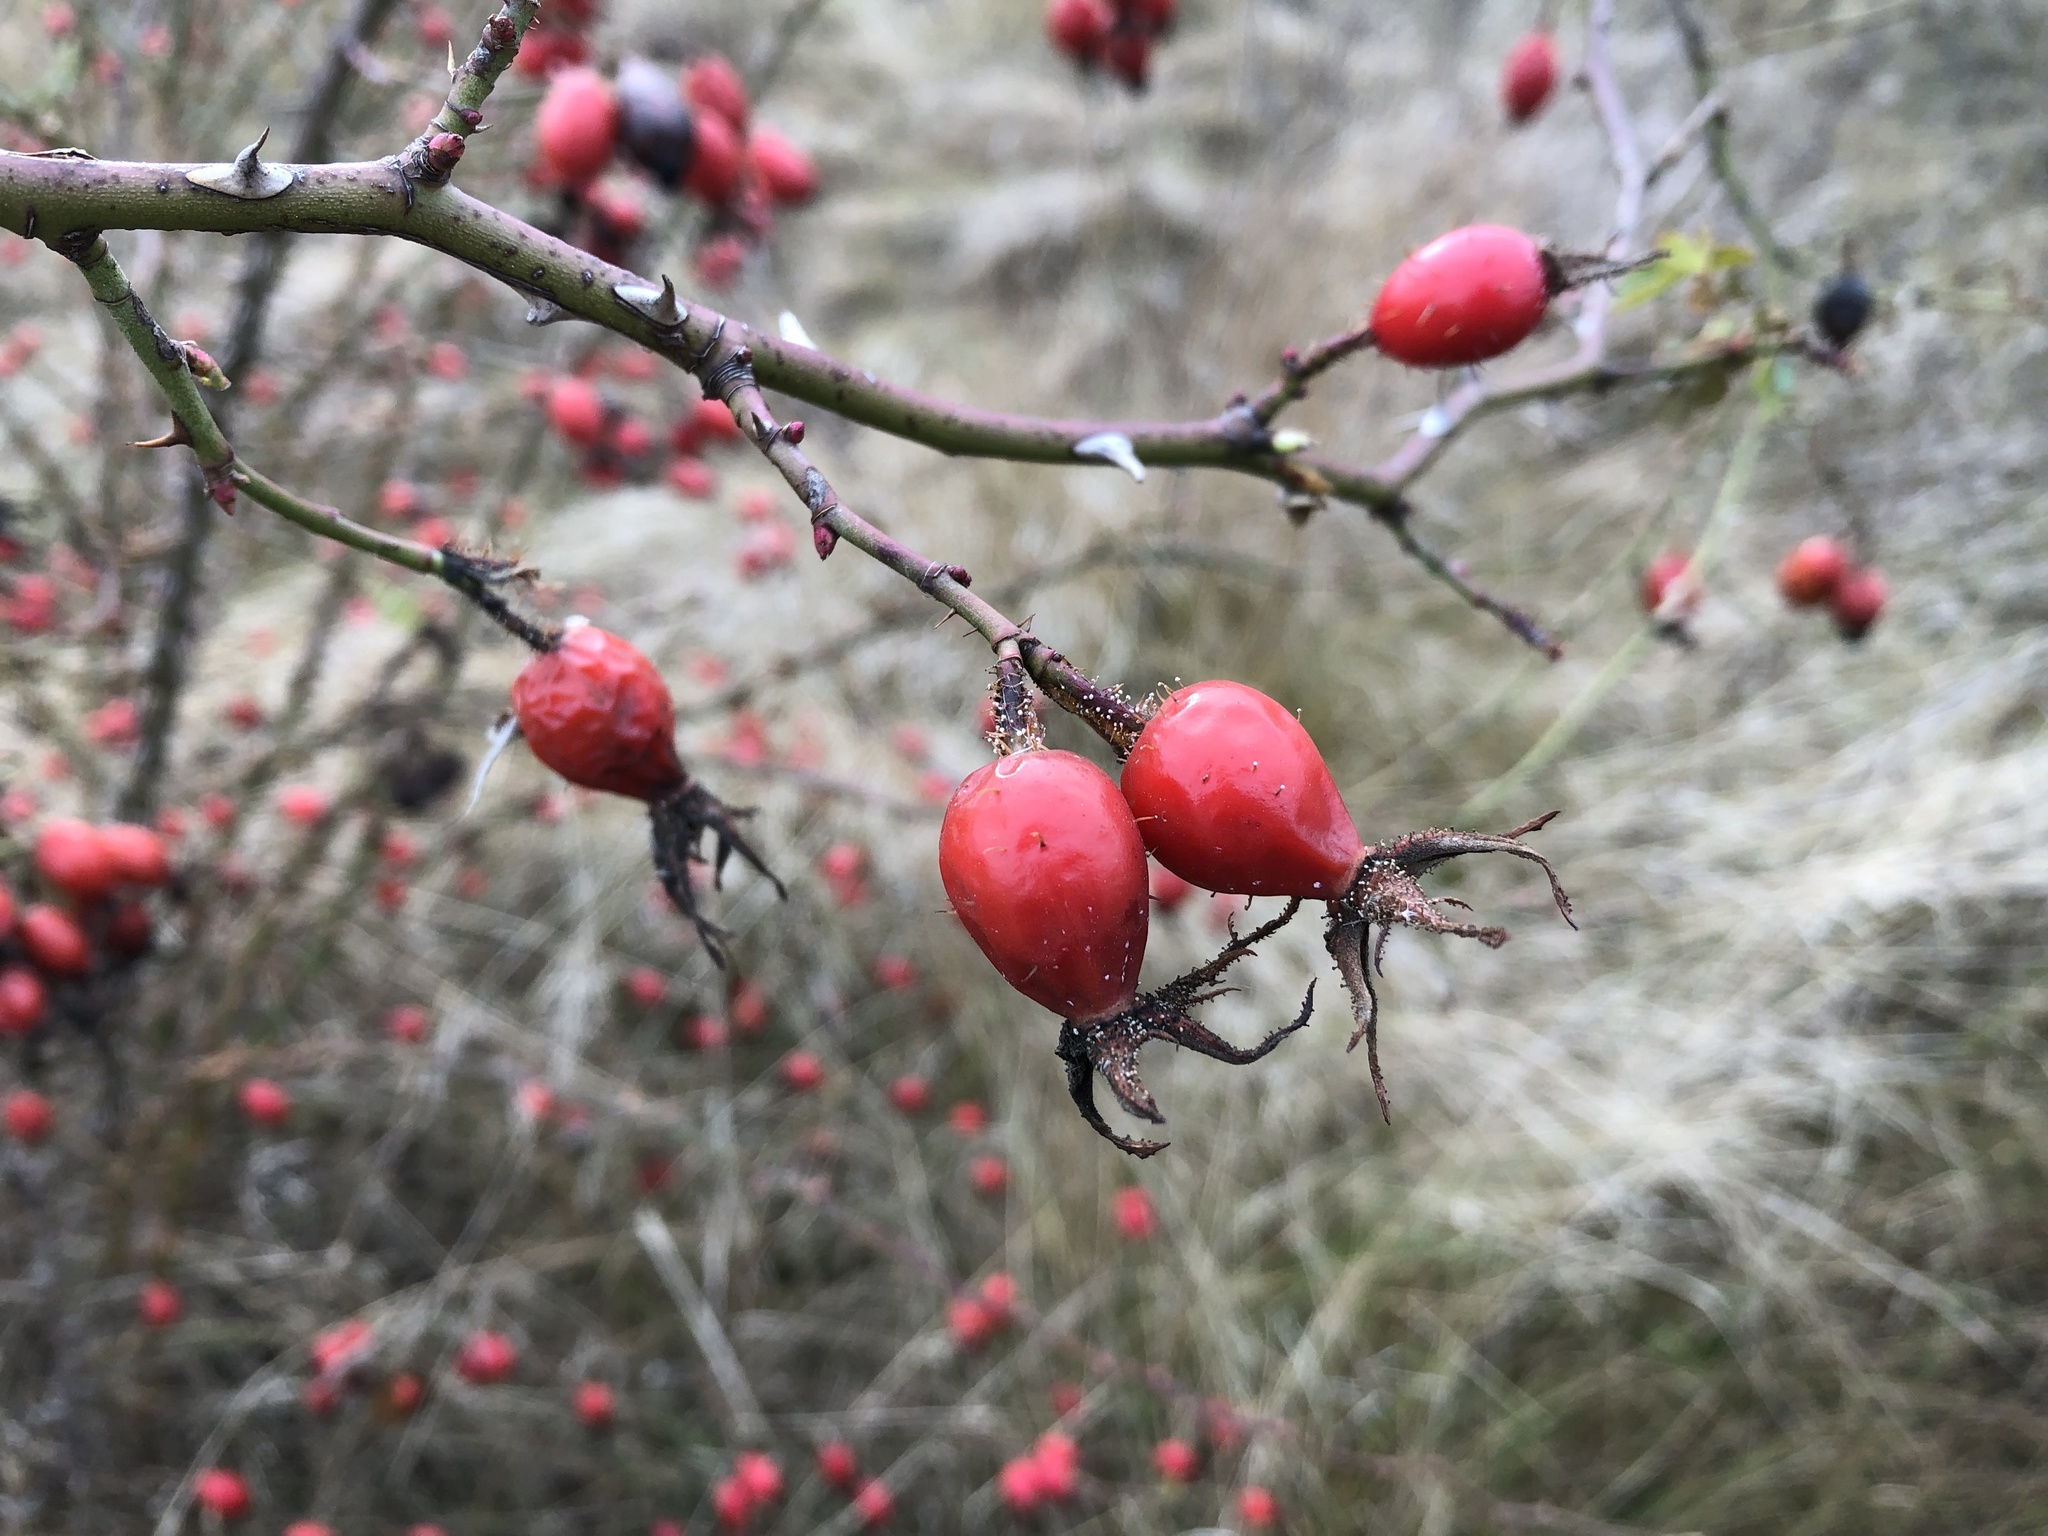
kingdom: Plantae
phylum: Tracheophyta
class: Magnoliopsida
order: Rosales
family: Rosaceae
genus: Rosa
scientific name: Rosa rubiginosa
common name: Sweet-briar
